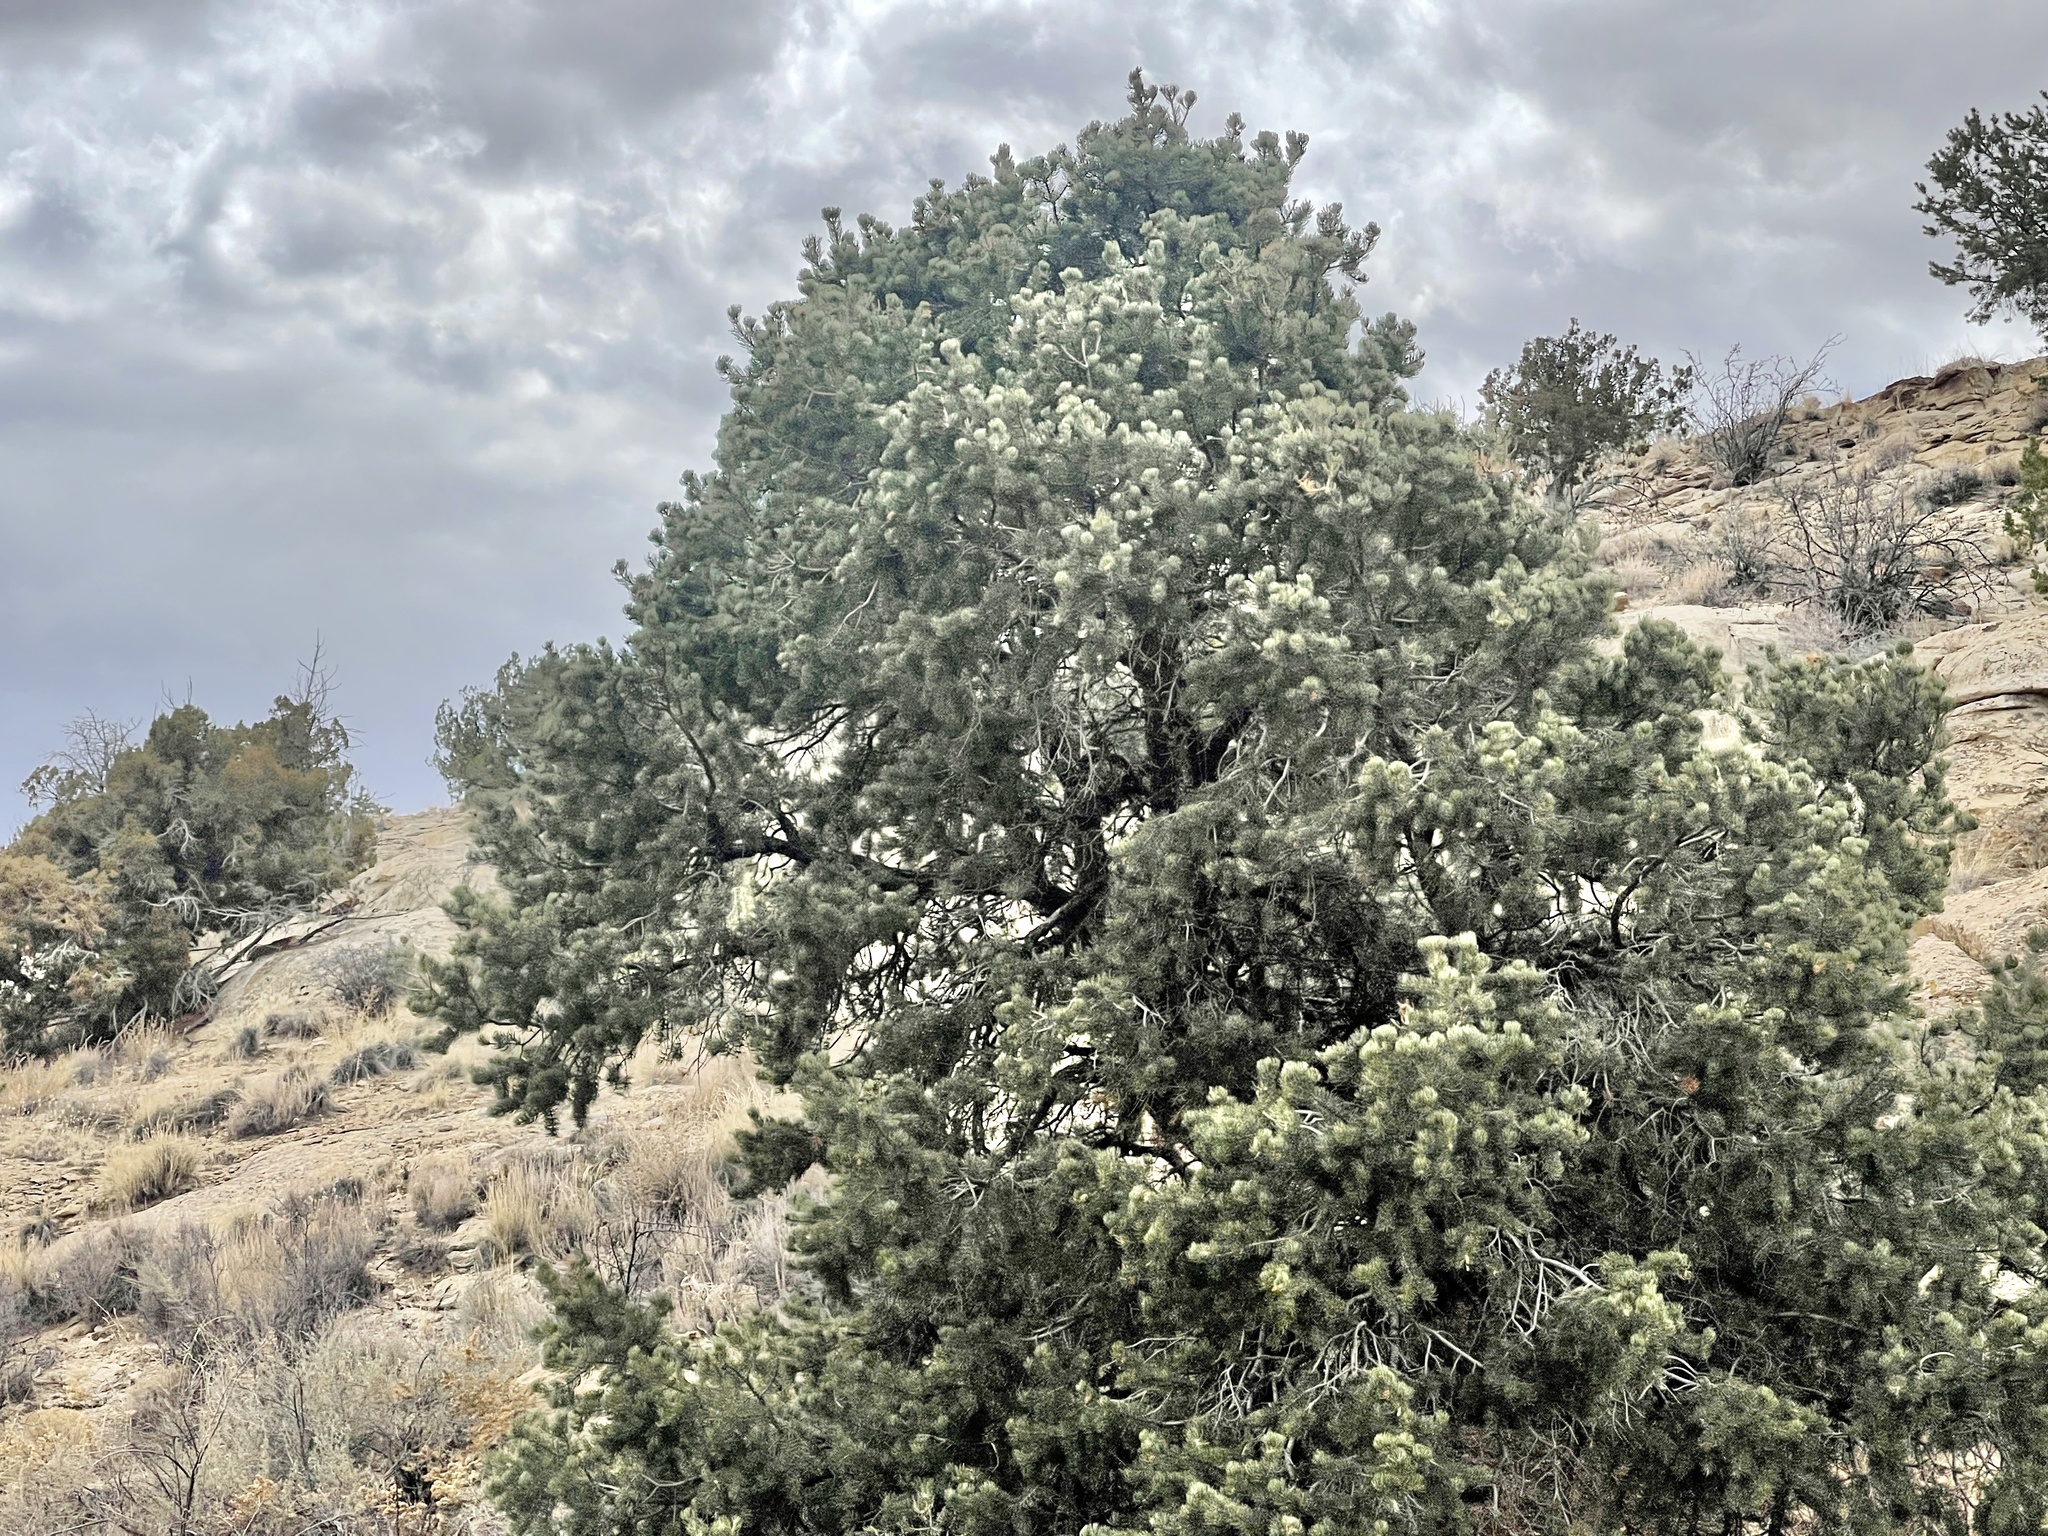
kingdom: Plantae
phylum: Tracheophyta
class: Pinopsida
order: Pinales
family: Pinaceae
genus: Pinus
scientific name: Pinus edulis
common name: Colorado pinyon
